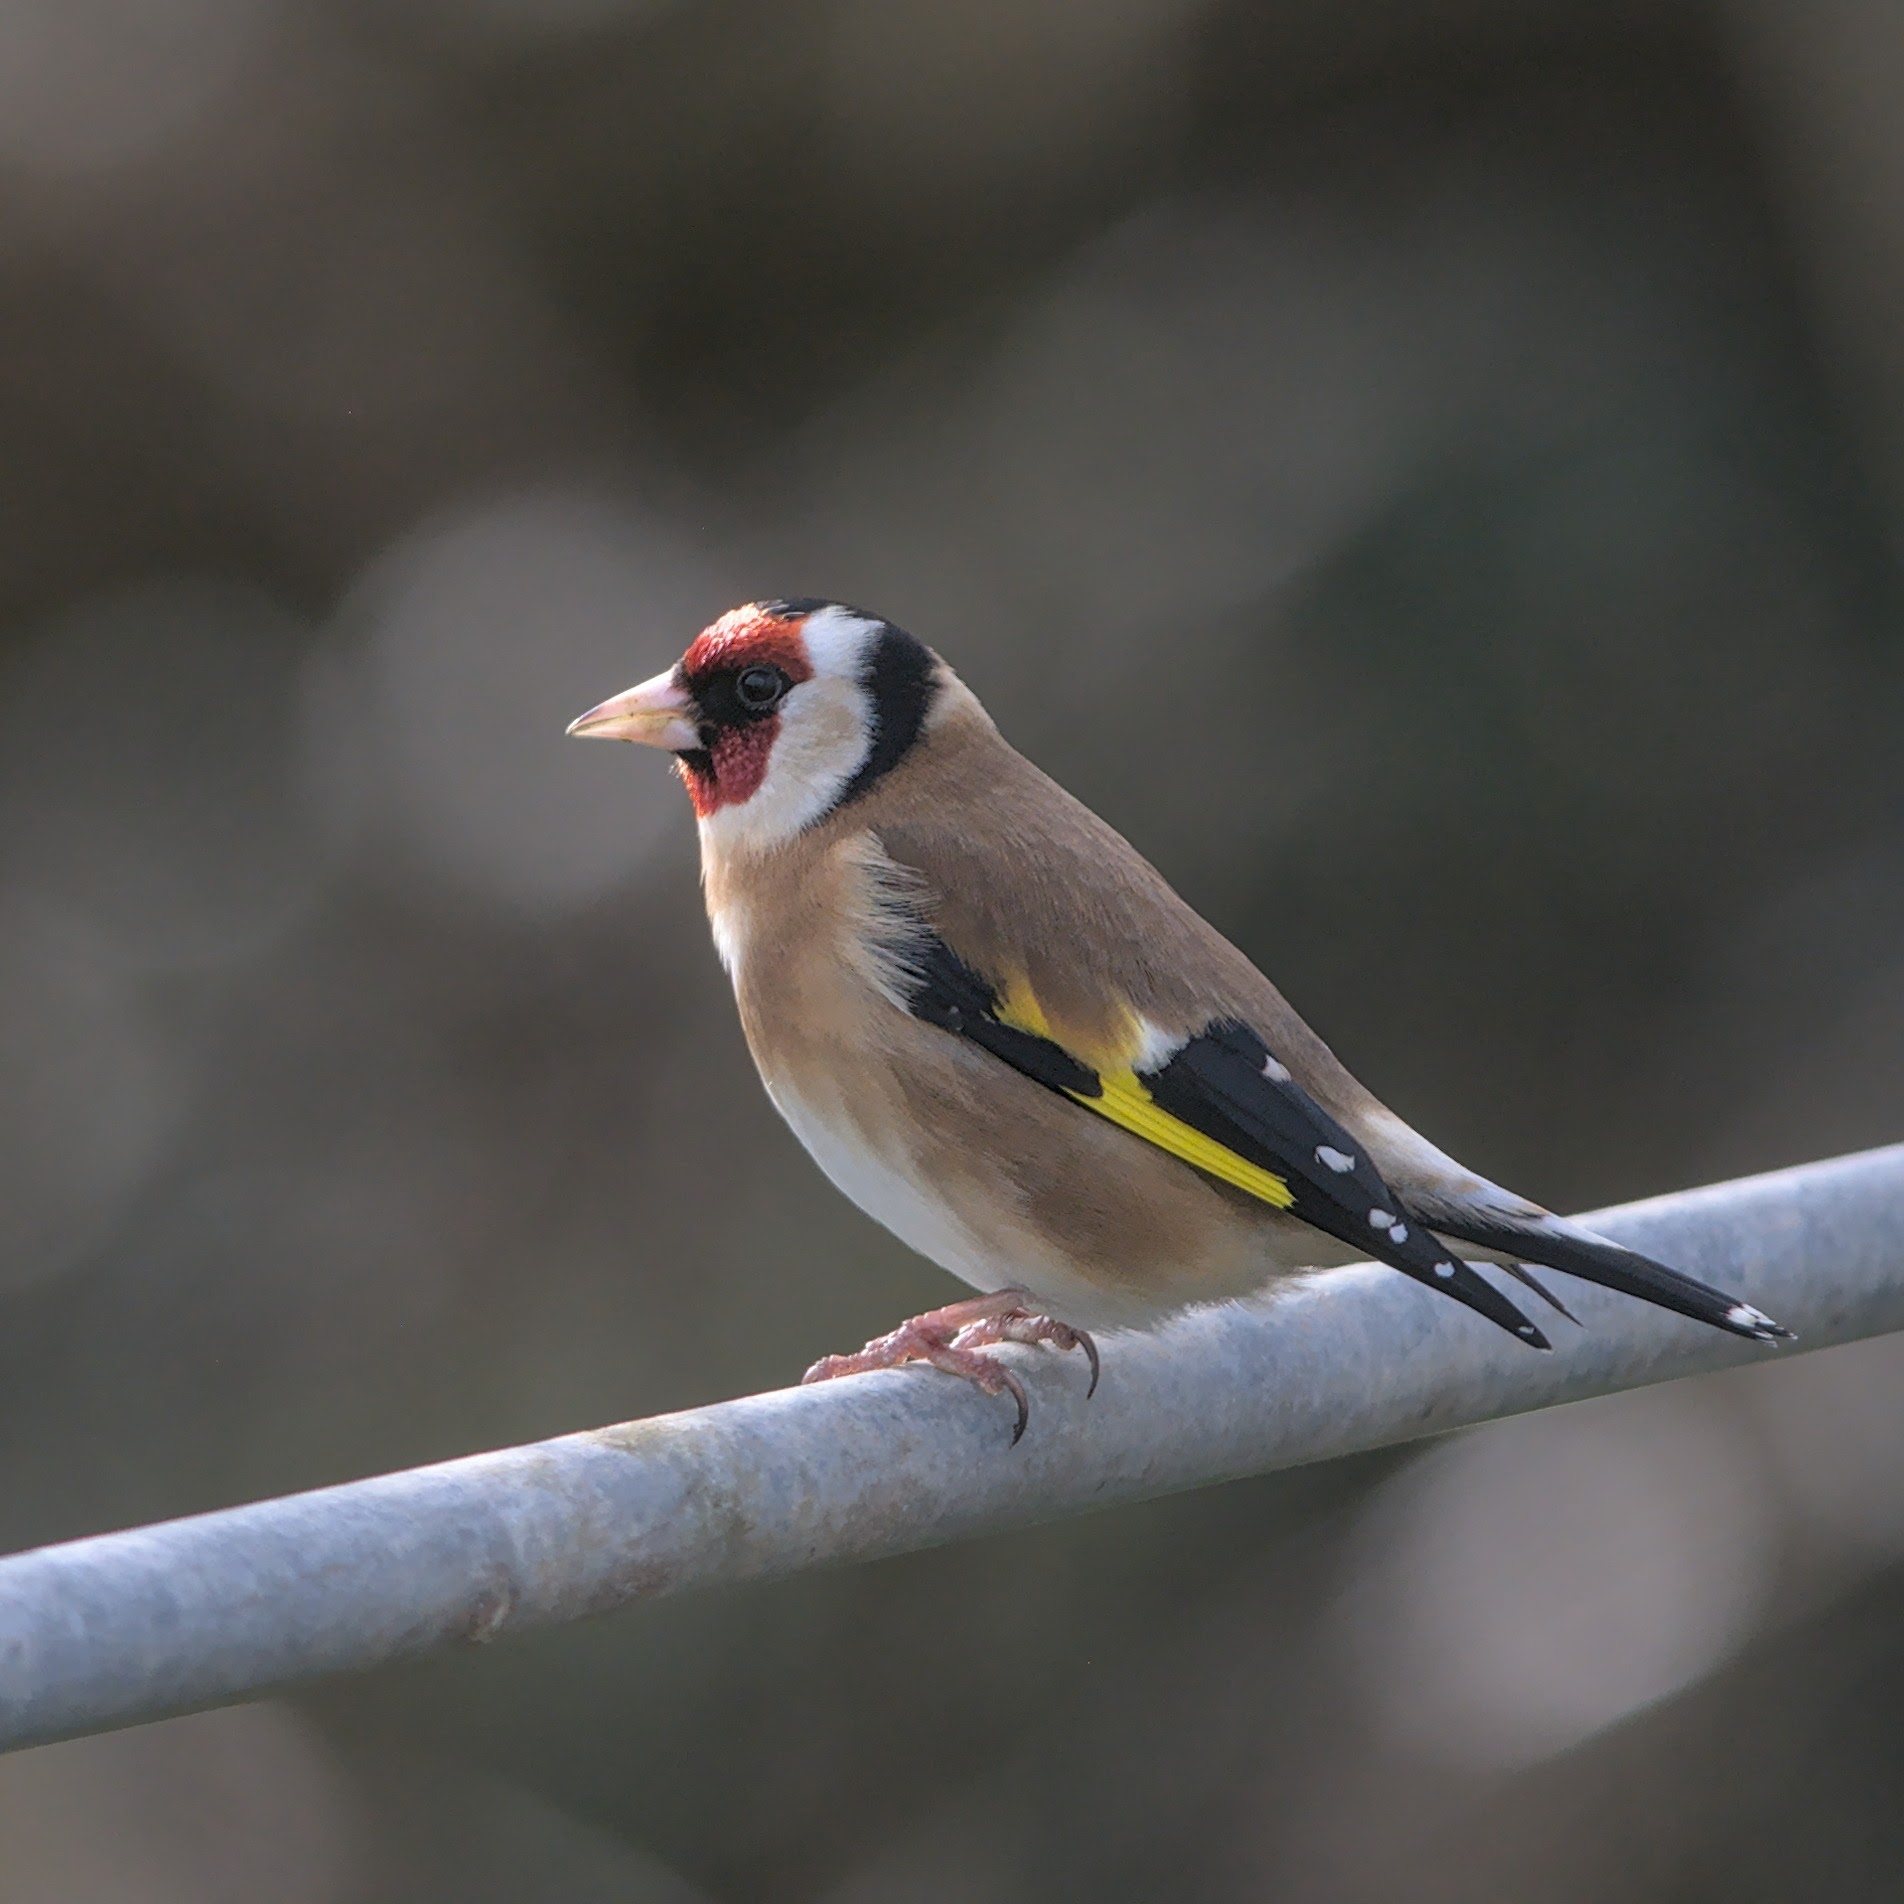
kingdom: Animalia
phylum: Chordata
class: Aves
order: Passeriformes
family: Fringillidae
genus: Carduelis
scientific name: Carduelis carduelis
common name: European goldfinch
